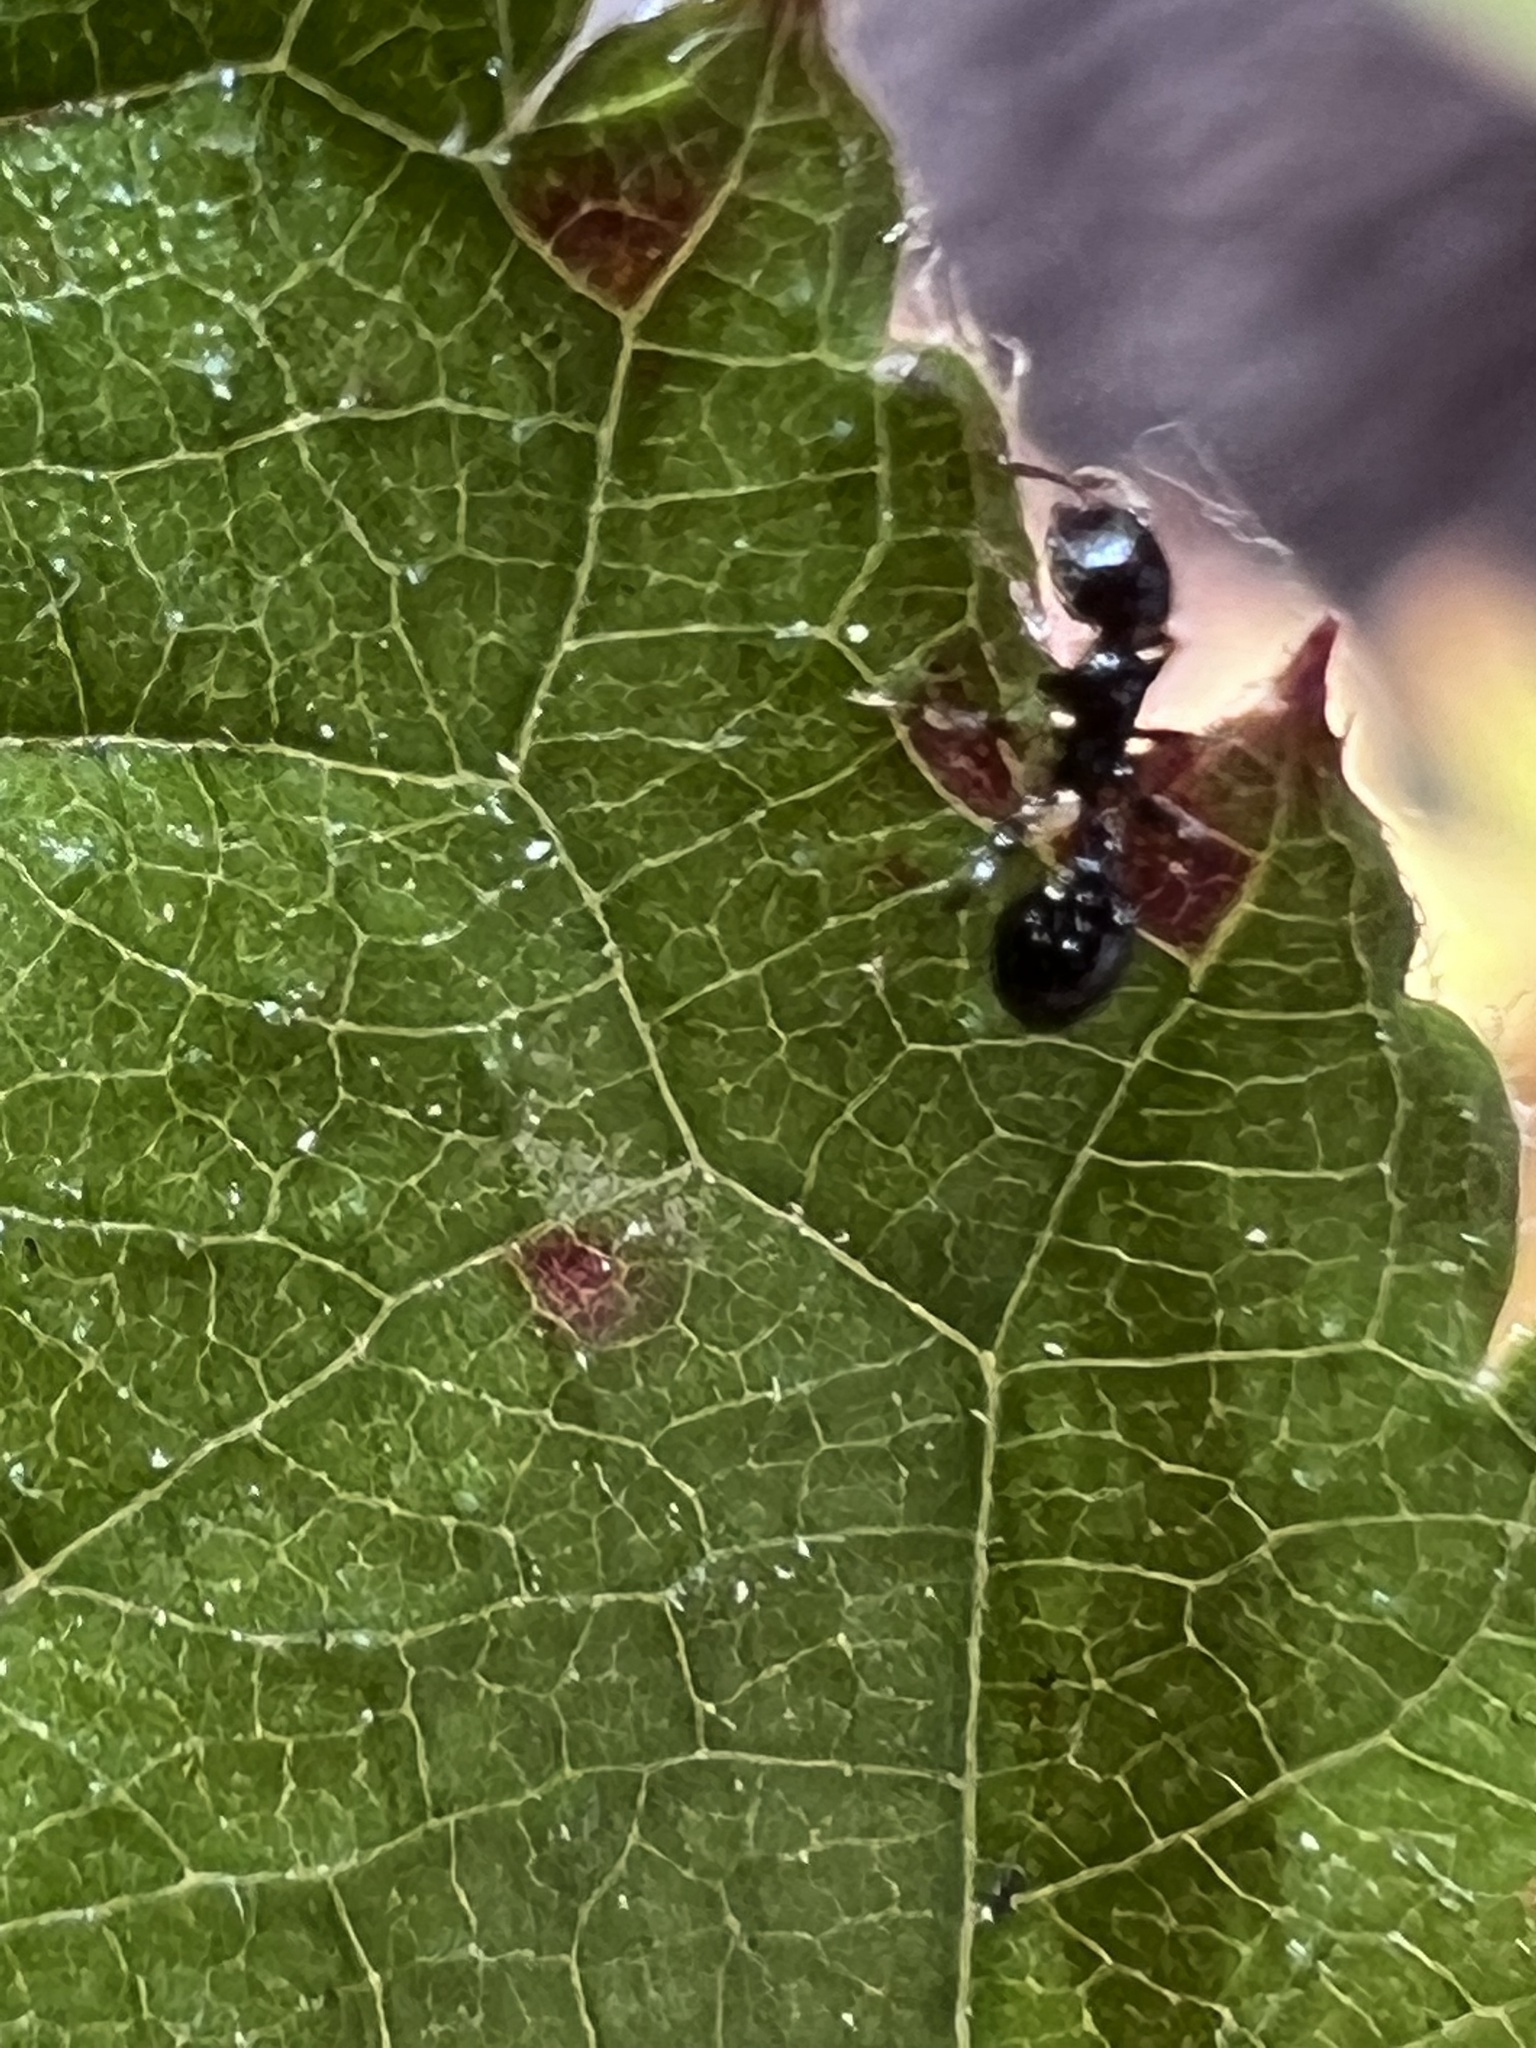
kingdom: Animalia
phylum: Arthropoda
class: Insecta
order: Hymenoptera
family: Formicidae
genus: Temnothorax
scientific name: Temnothorax longispinosus
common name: Long-spined acorn ant
